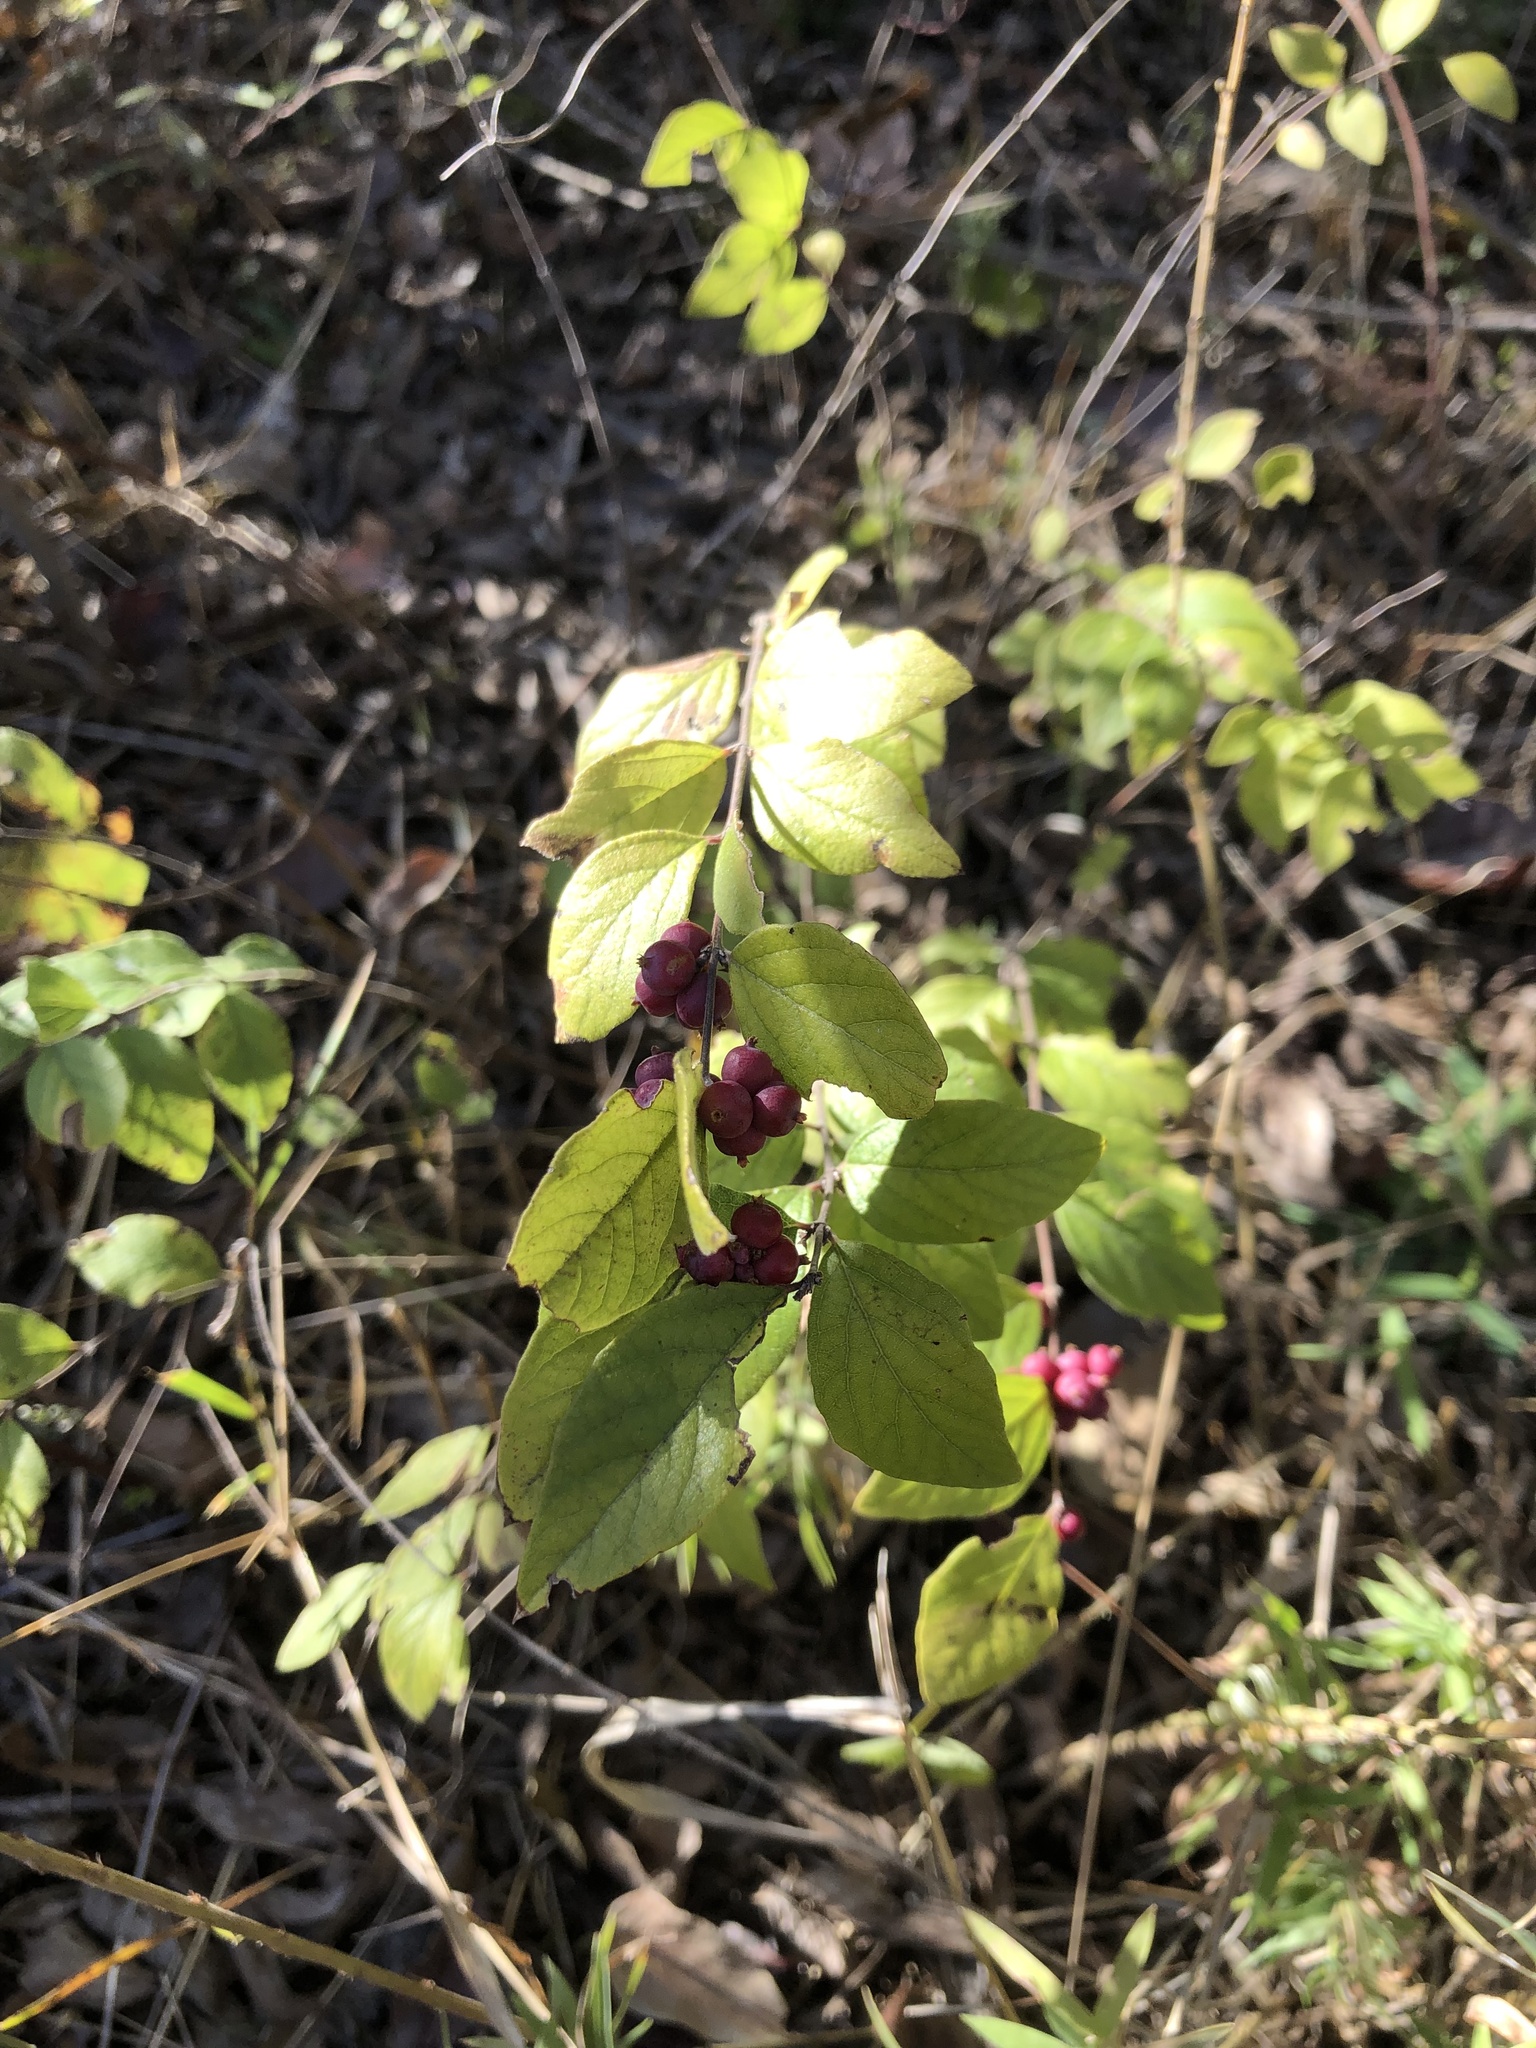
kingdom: Plantae
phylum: Tracheophyta
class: Magnoliopsida
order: Dipsacales
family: Caprifoliaceae
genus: Symphoricarpos
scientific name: Symphoricarpos orbiculatus
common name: Coralberry
